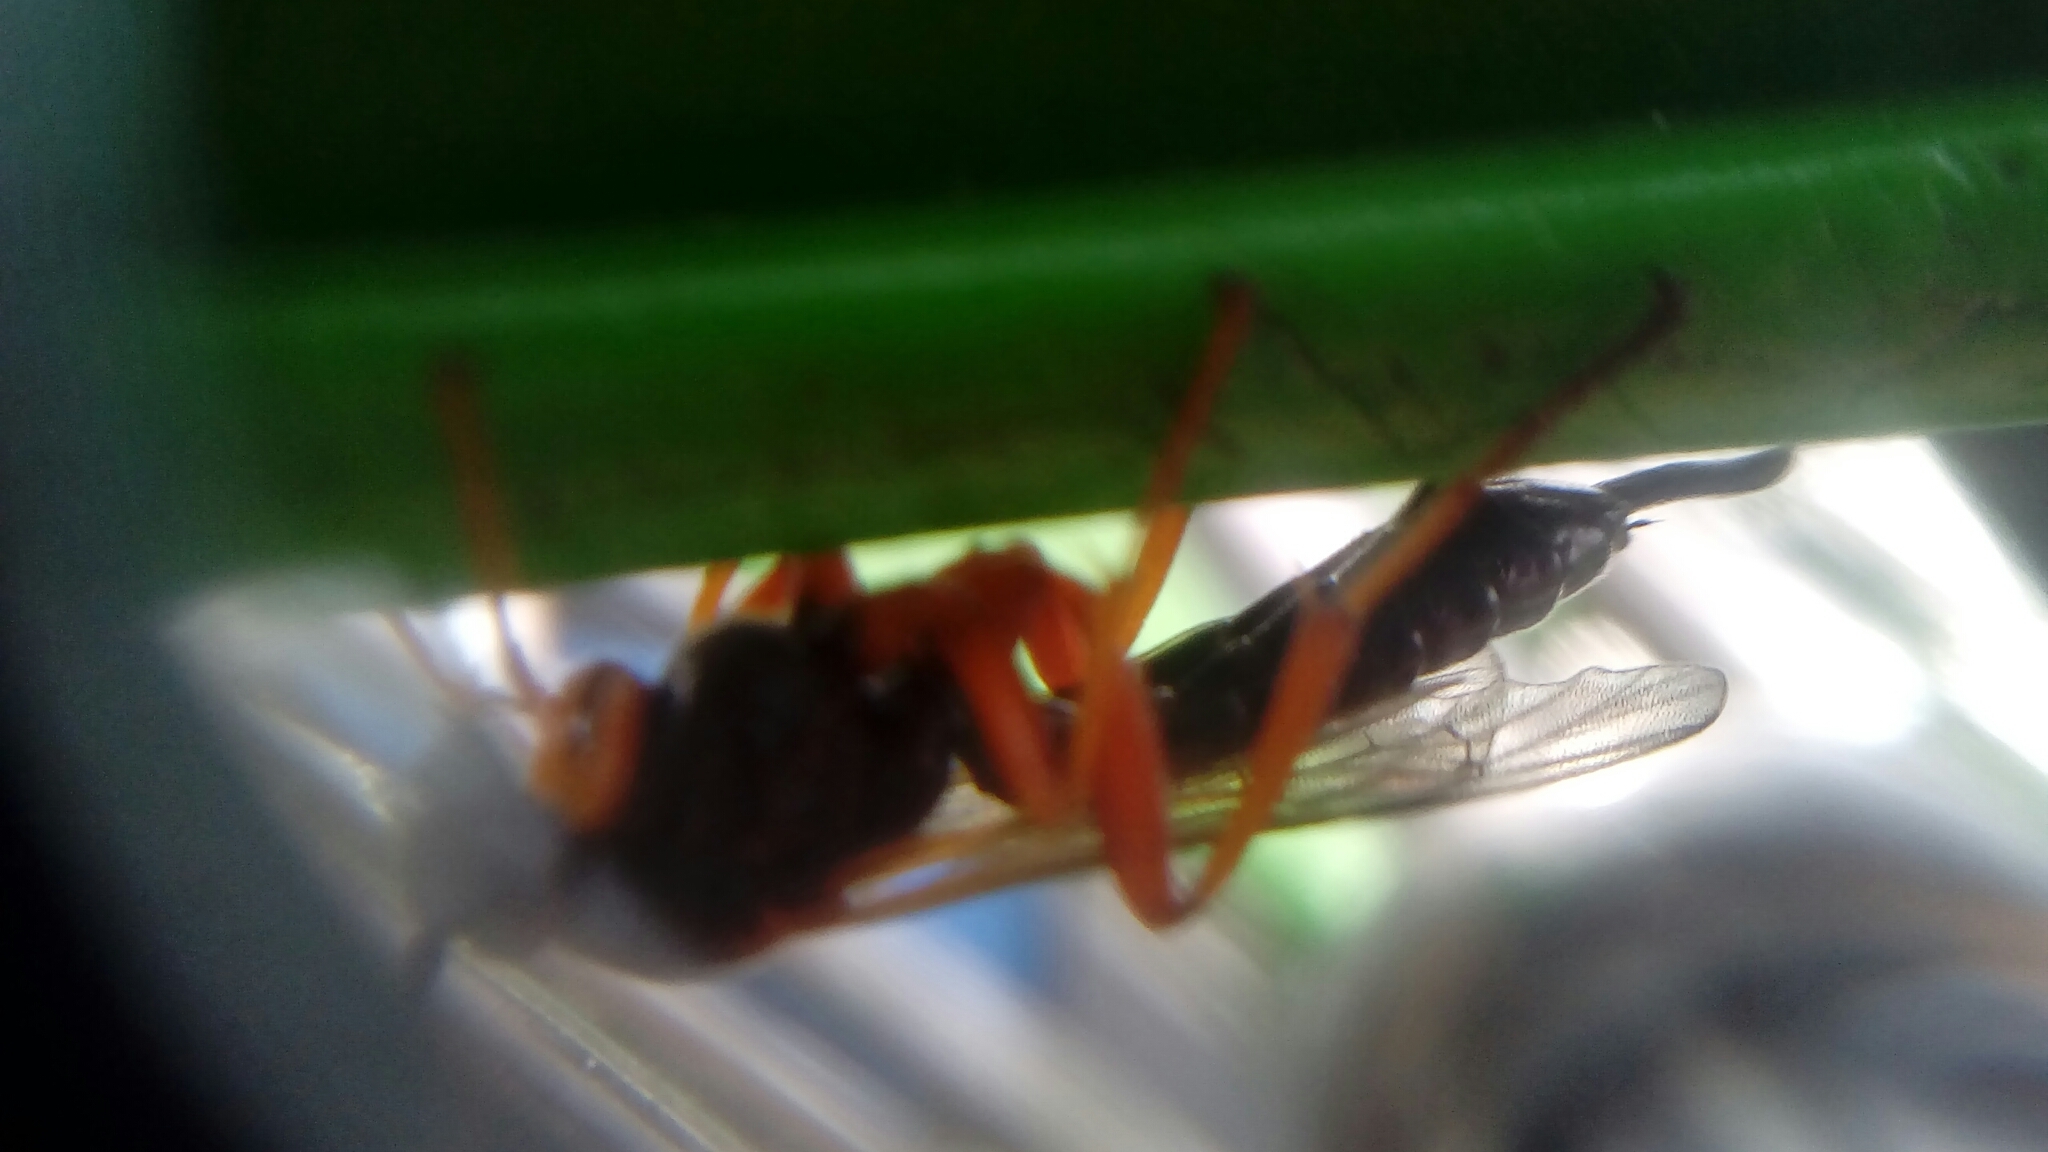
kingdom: Animalia
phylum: Arthropoda
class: Insecta
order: Hymenoptera
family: Ichneumonidae
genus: Apechthis
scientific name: Apechthis compunctor
